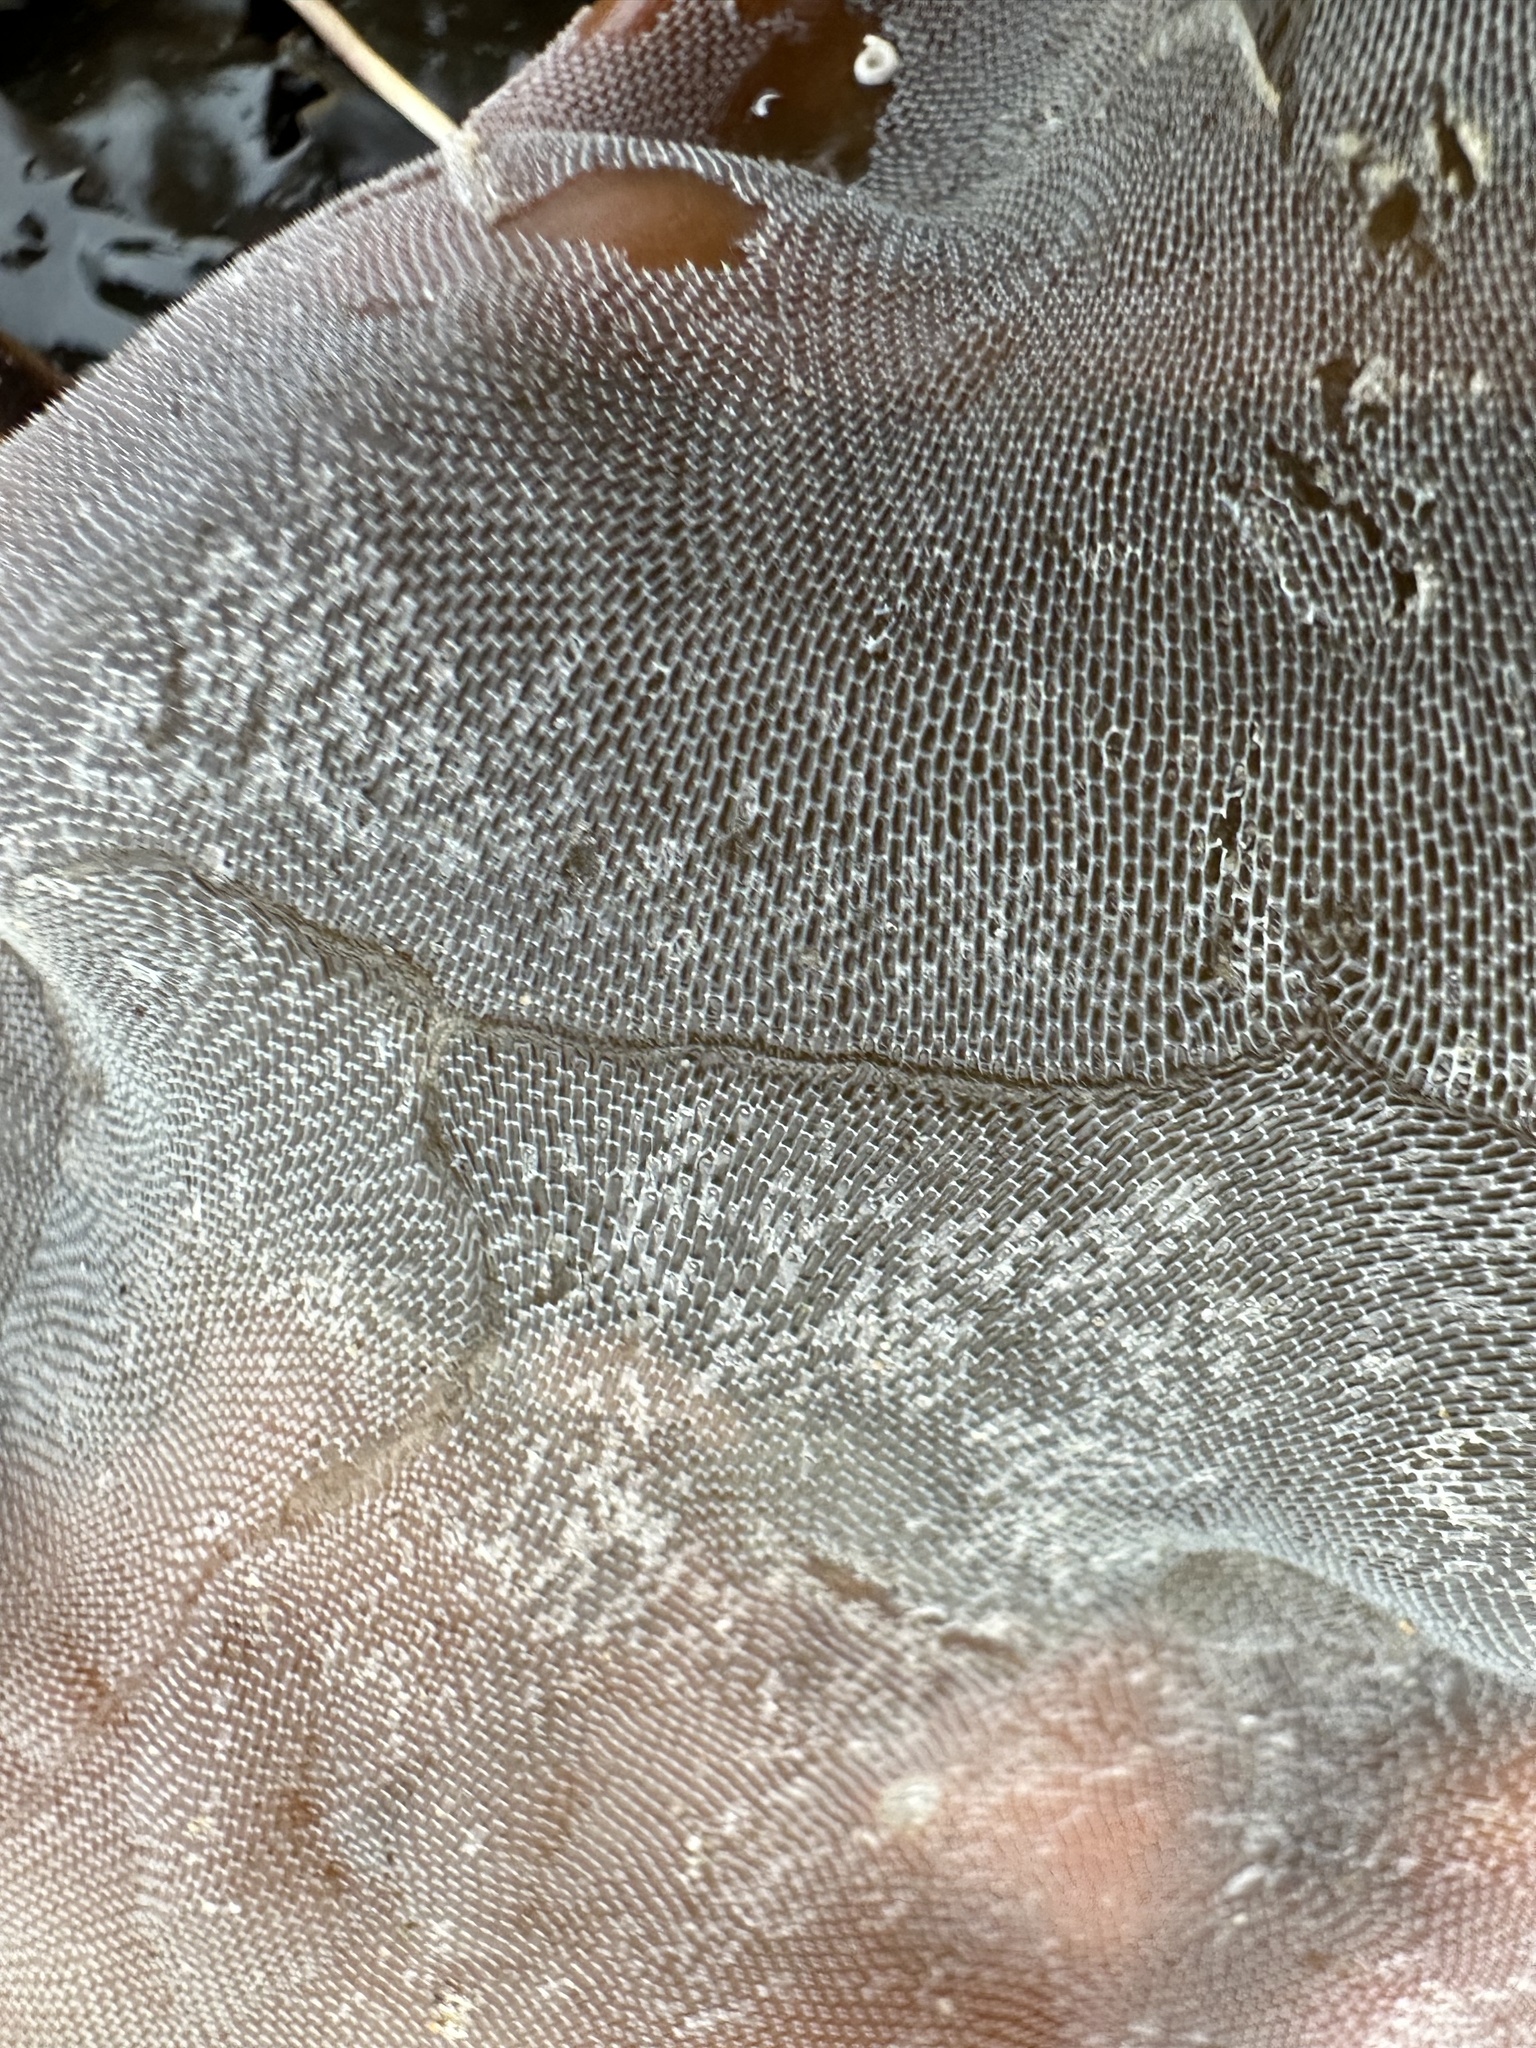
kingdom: Animalia
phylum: Bryozoa
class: Gymnolaemata
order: Cheilostomatida
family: Membraniporidae
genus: Membranipora
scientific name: Membranipora membranacea
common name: Sea mat
